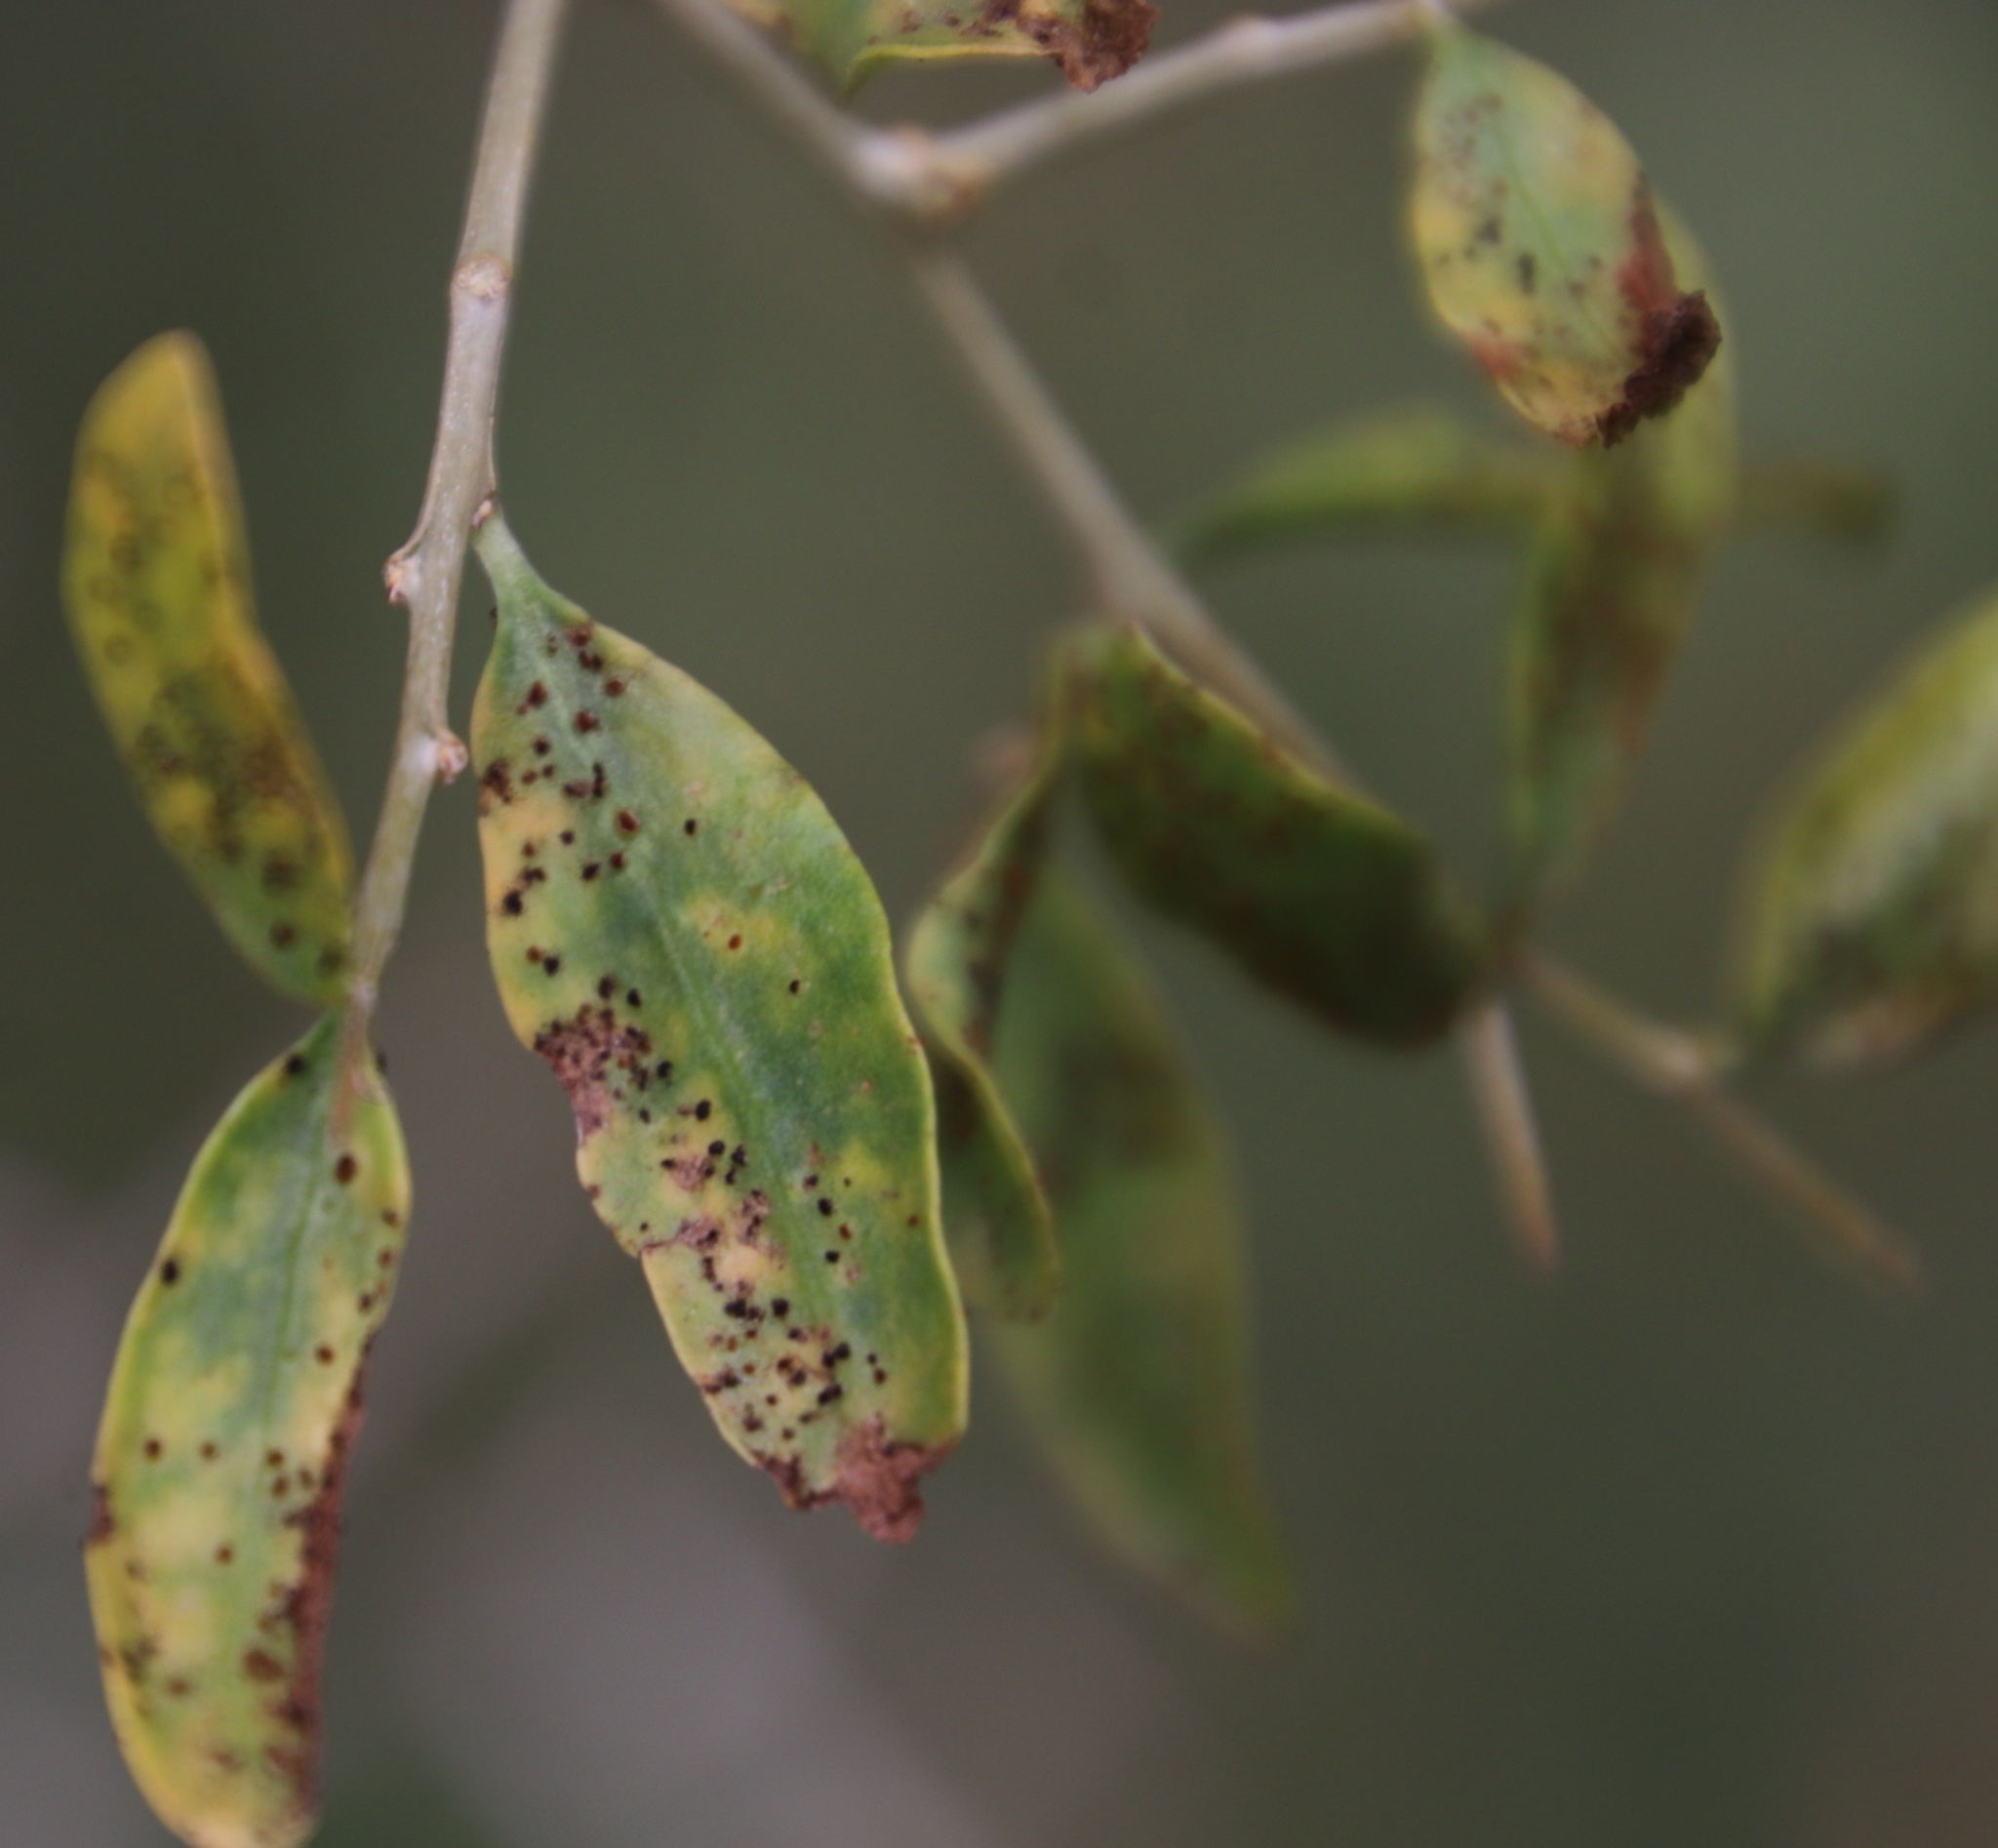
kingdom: Plantae
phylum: Tracheophyta
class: Magnoliopsida
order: Solanales
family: Solanaceae
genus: Lycium
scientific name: Lycium ferocissimum
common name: African boxthorn
